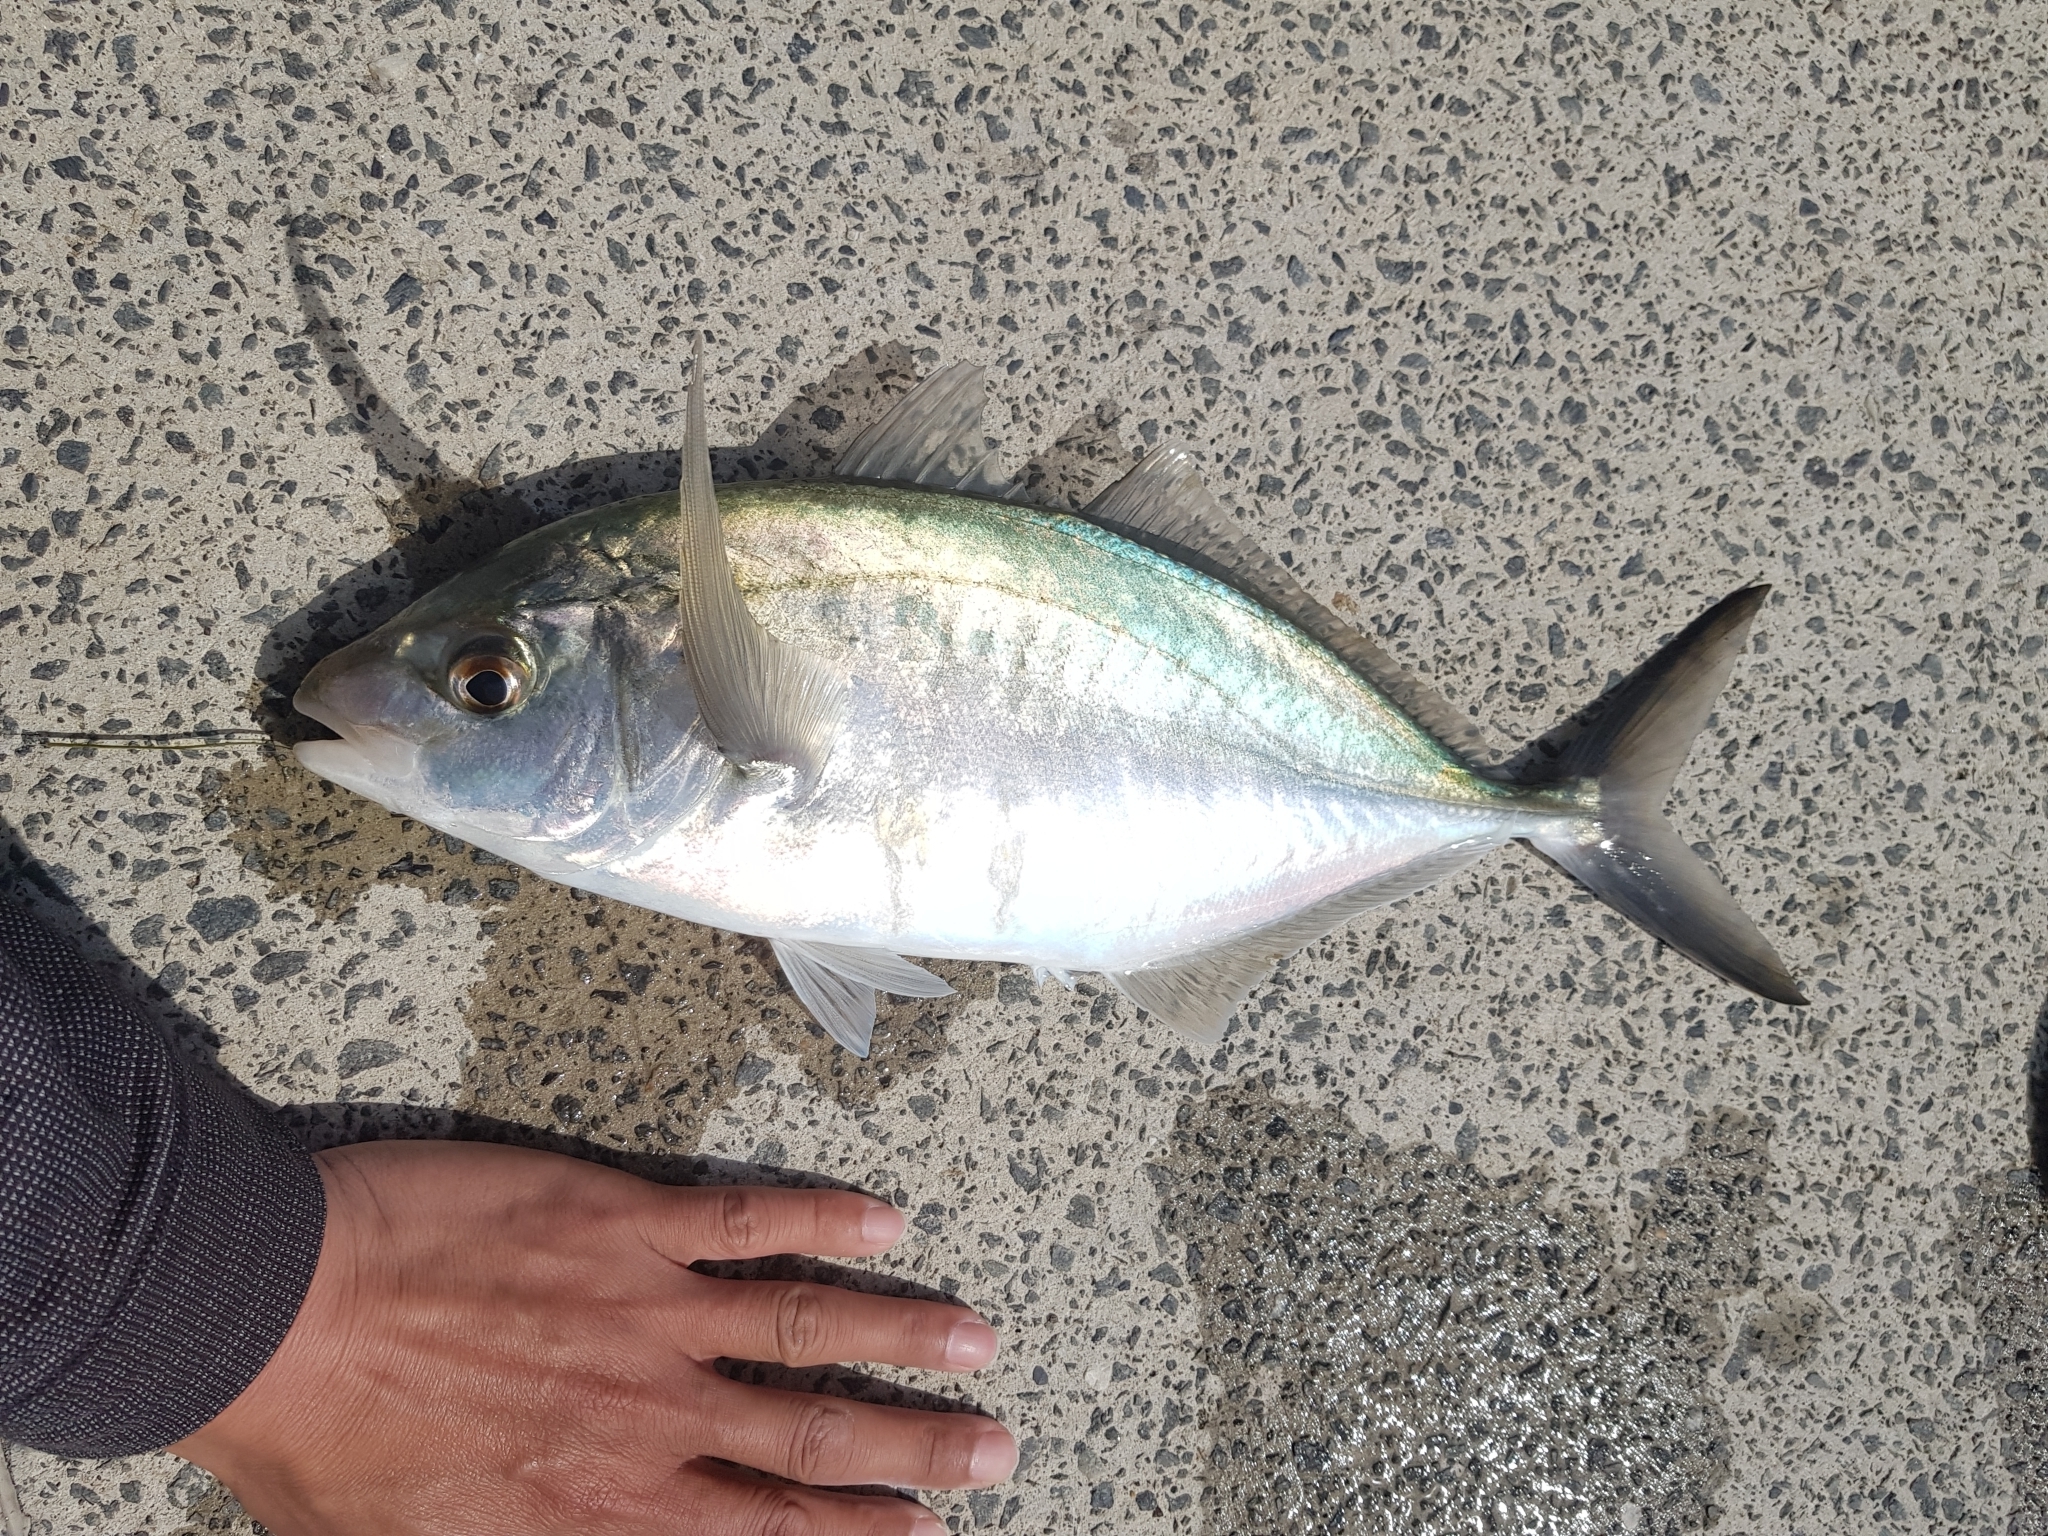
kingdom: Animalia
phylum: Chordata
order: Perciformes
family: Carangidae
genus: Pseudocaranx
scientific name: Pseudocaranx dentex
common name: White trevally
